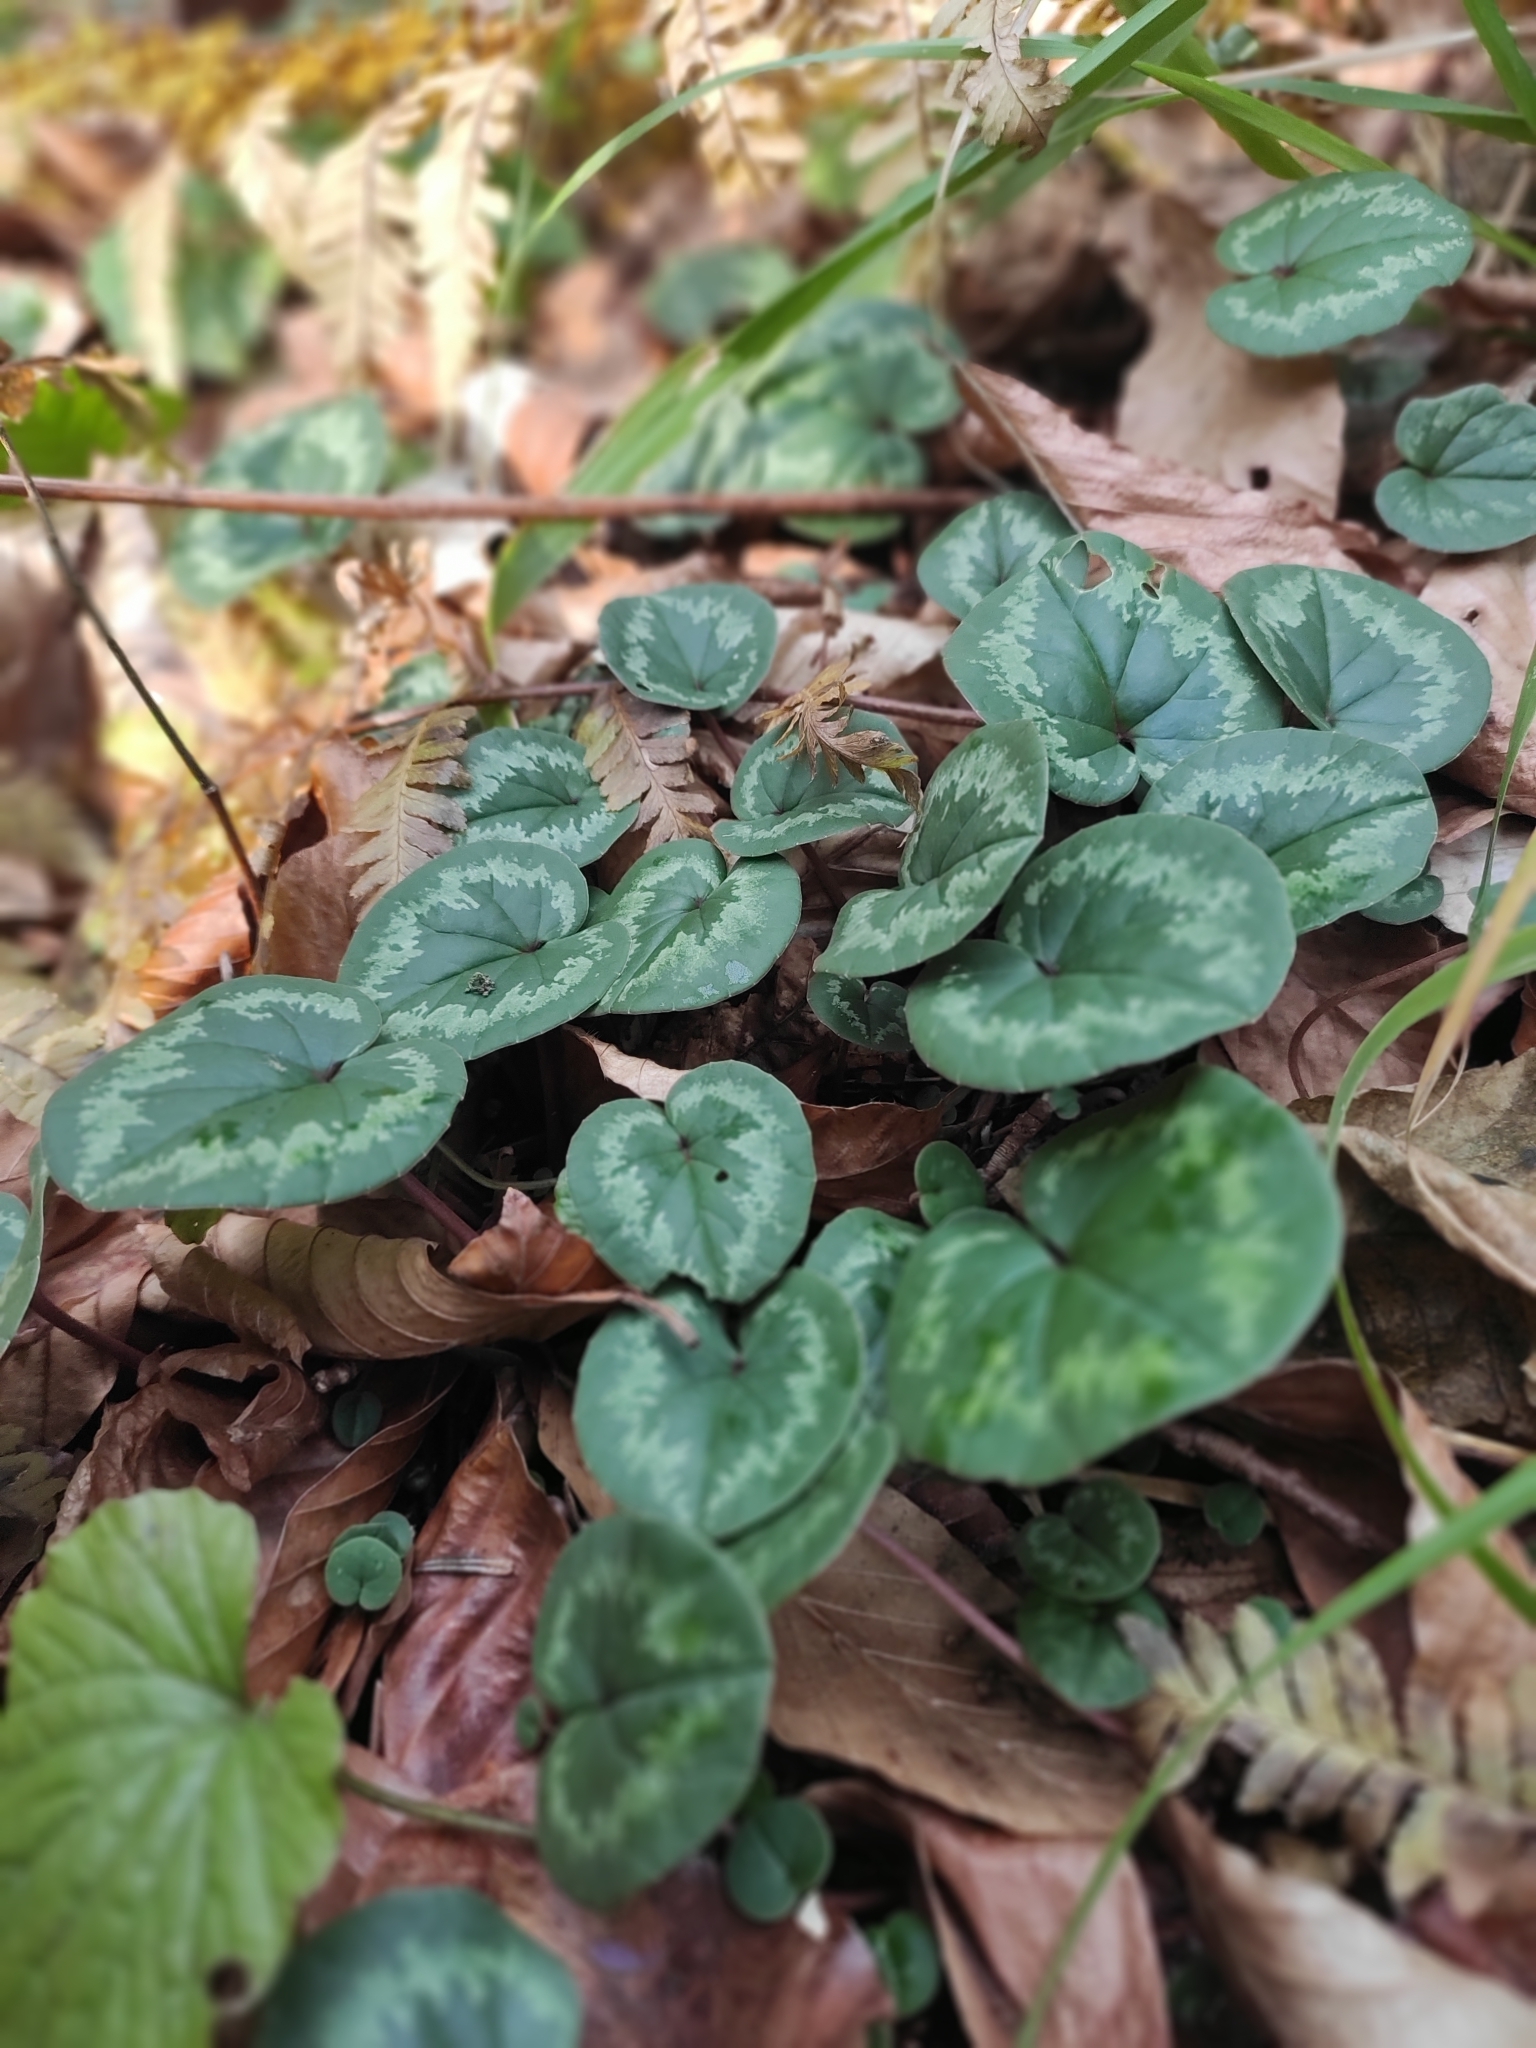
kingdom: Plantae
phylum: Tracheophyta
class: Magnoliopsida
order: Ericales
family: Primulaceae
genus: Cyclamen
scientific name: Cyclamen coum
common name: Eastern sowbread
